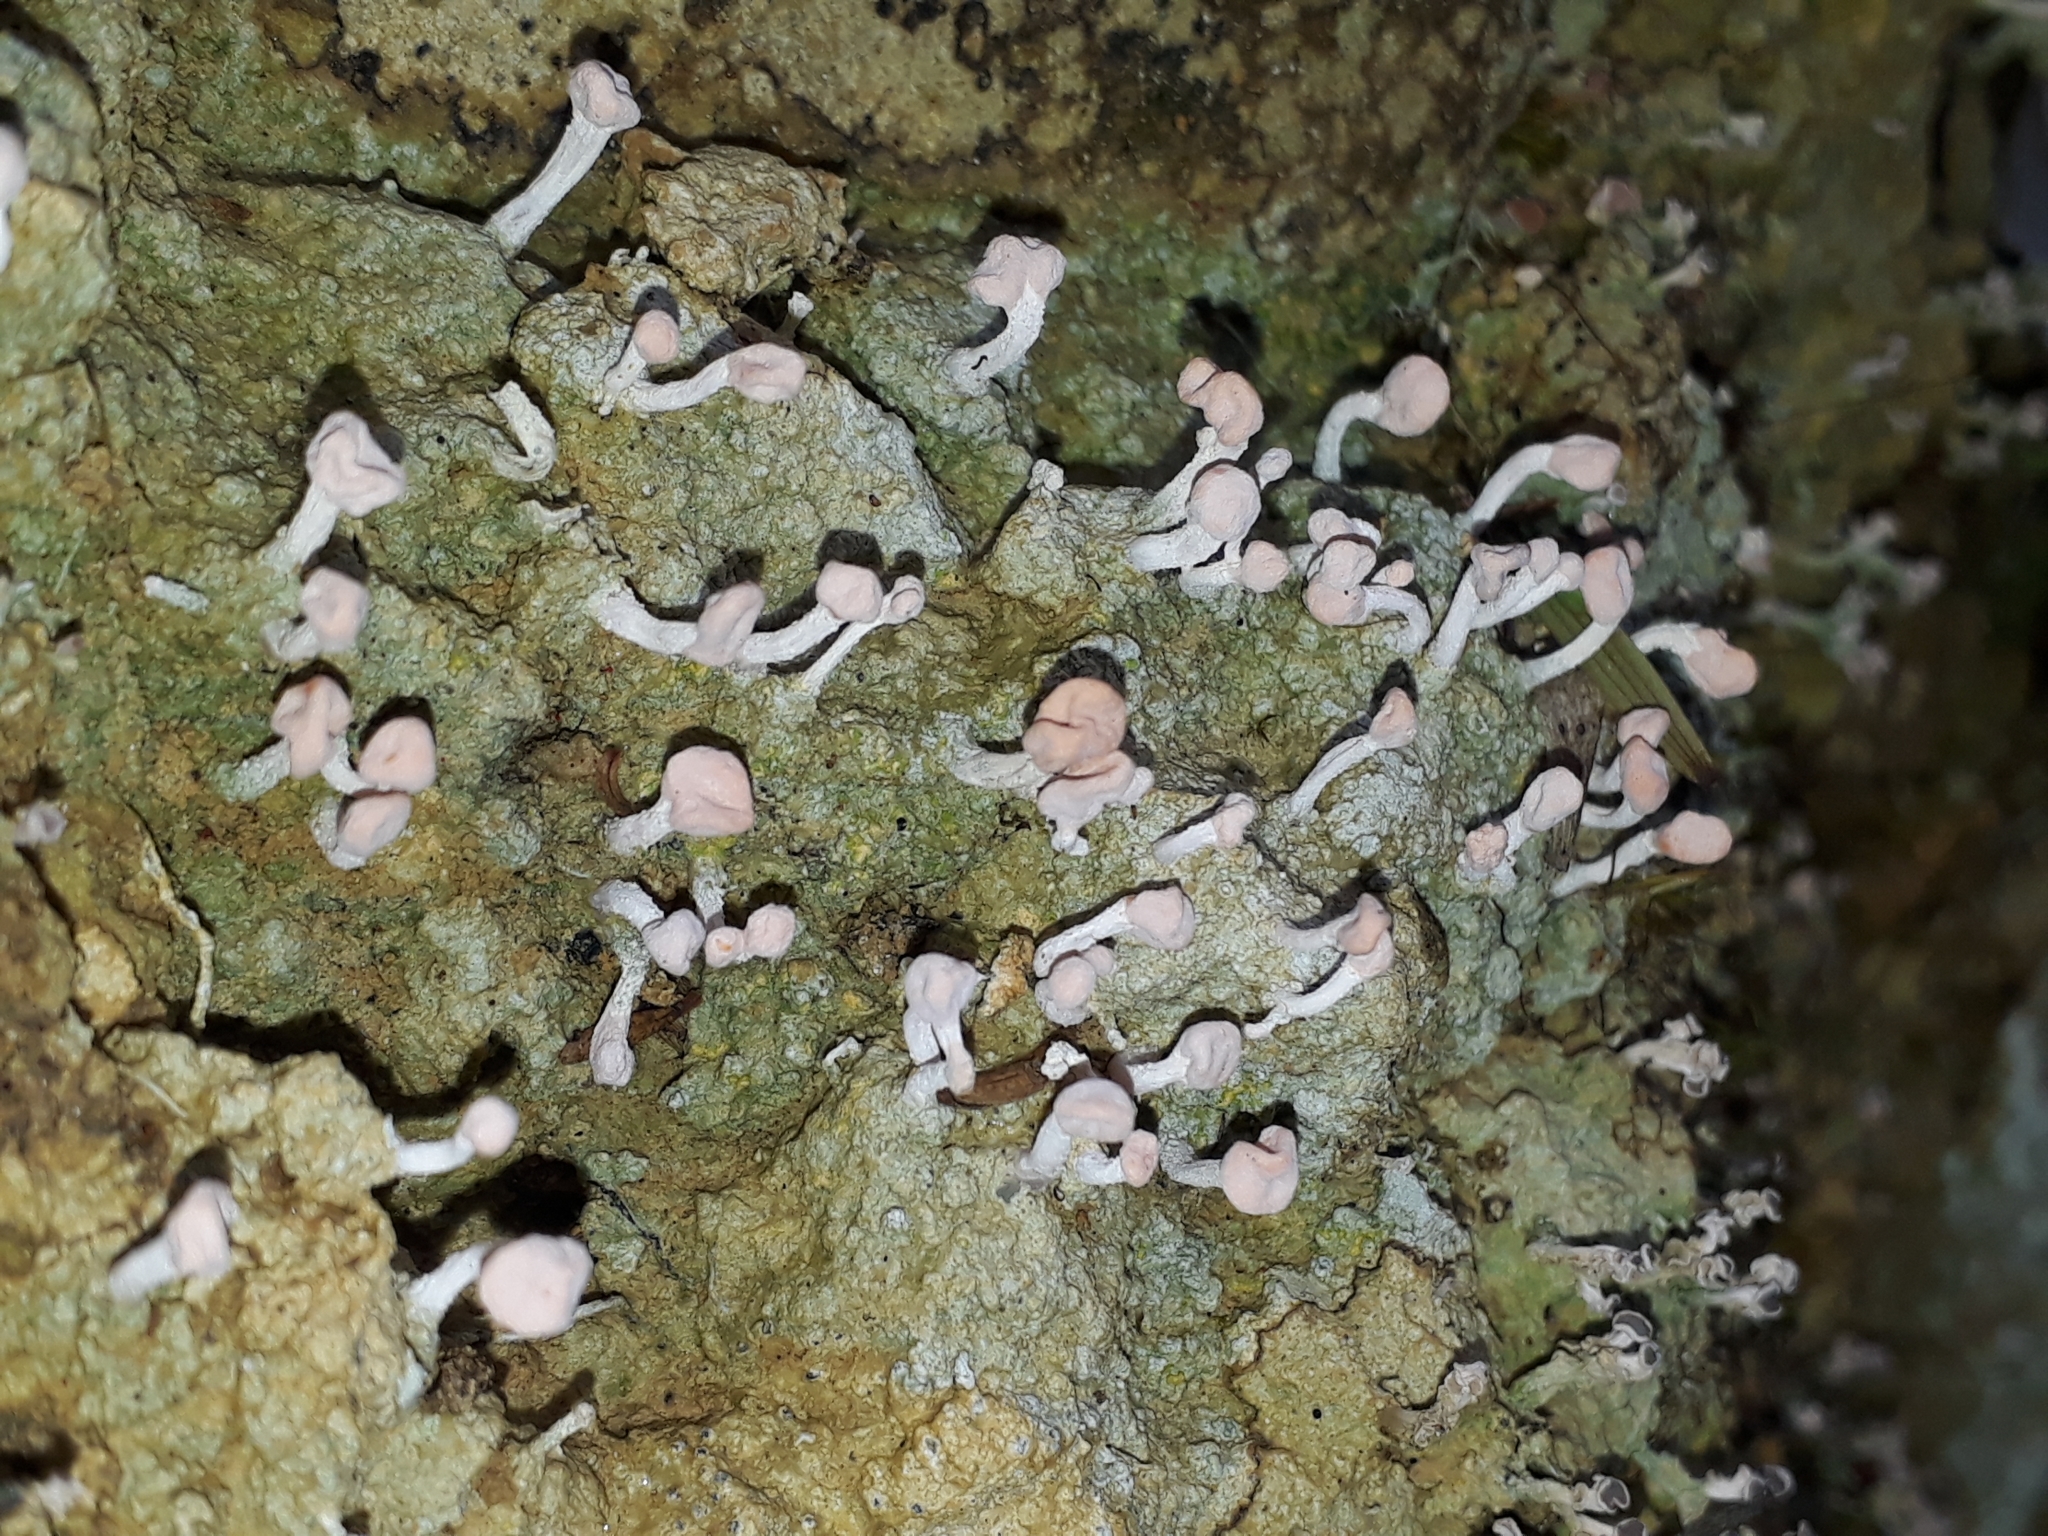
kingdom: Fungi
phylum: Ascomycota
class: Lecanoromycetes
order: Pertusariales
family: Icmadophilaceae
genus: Dibaeis
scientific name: Dibaeis arcuata
